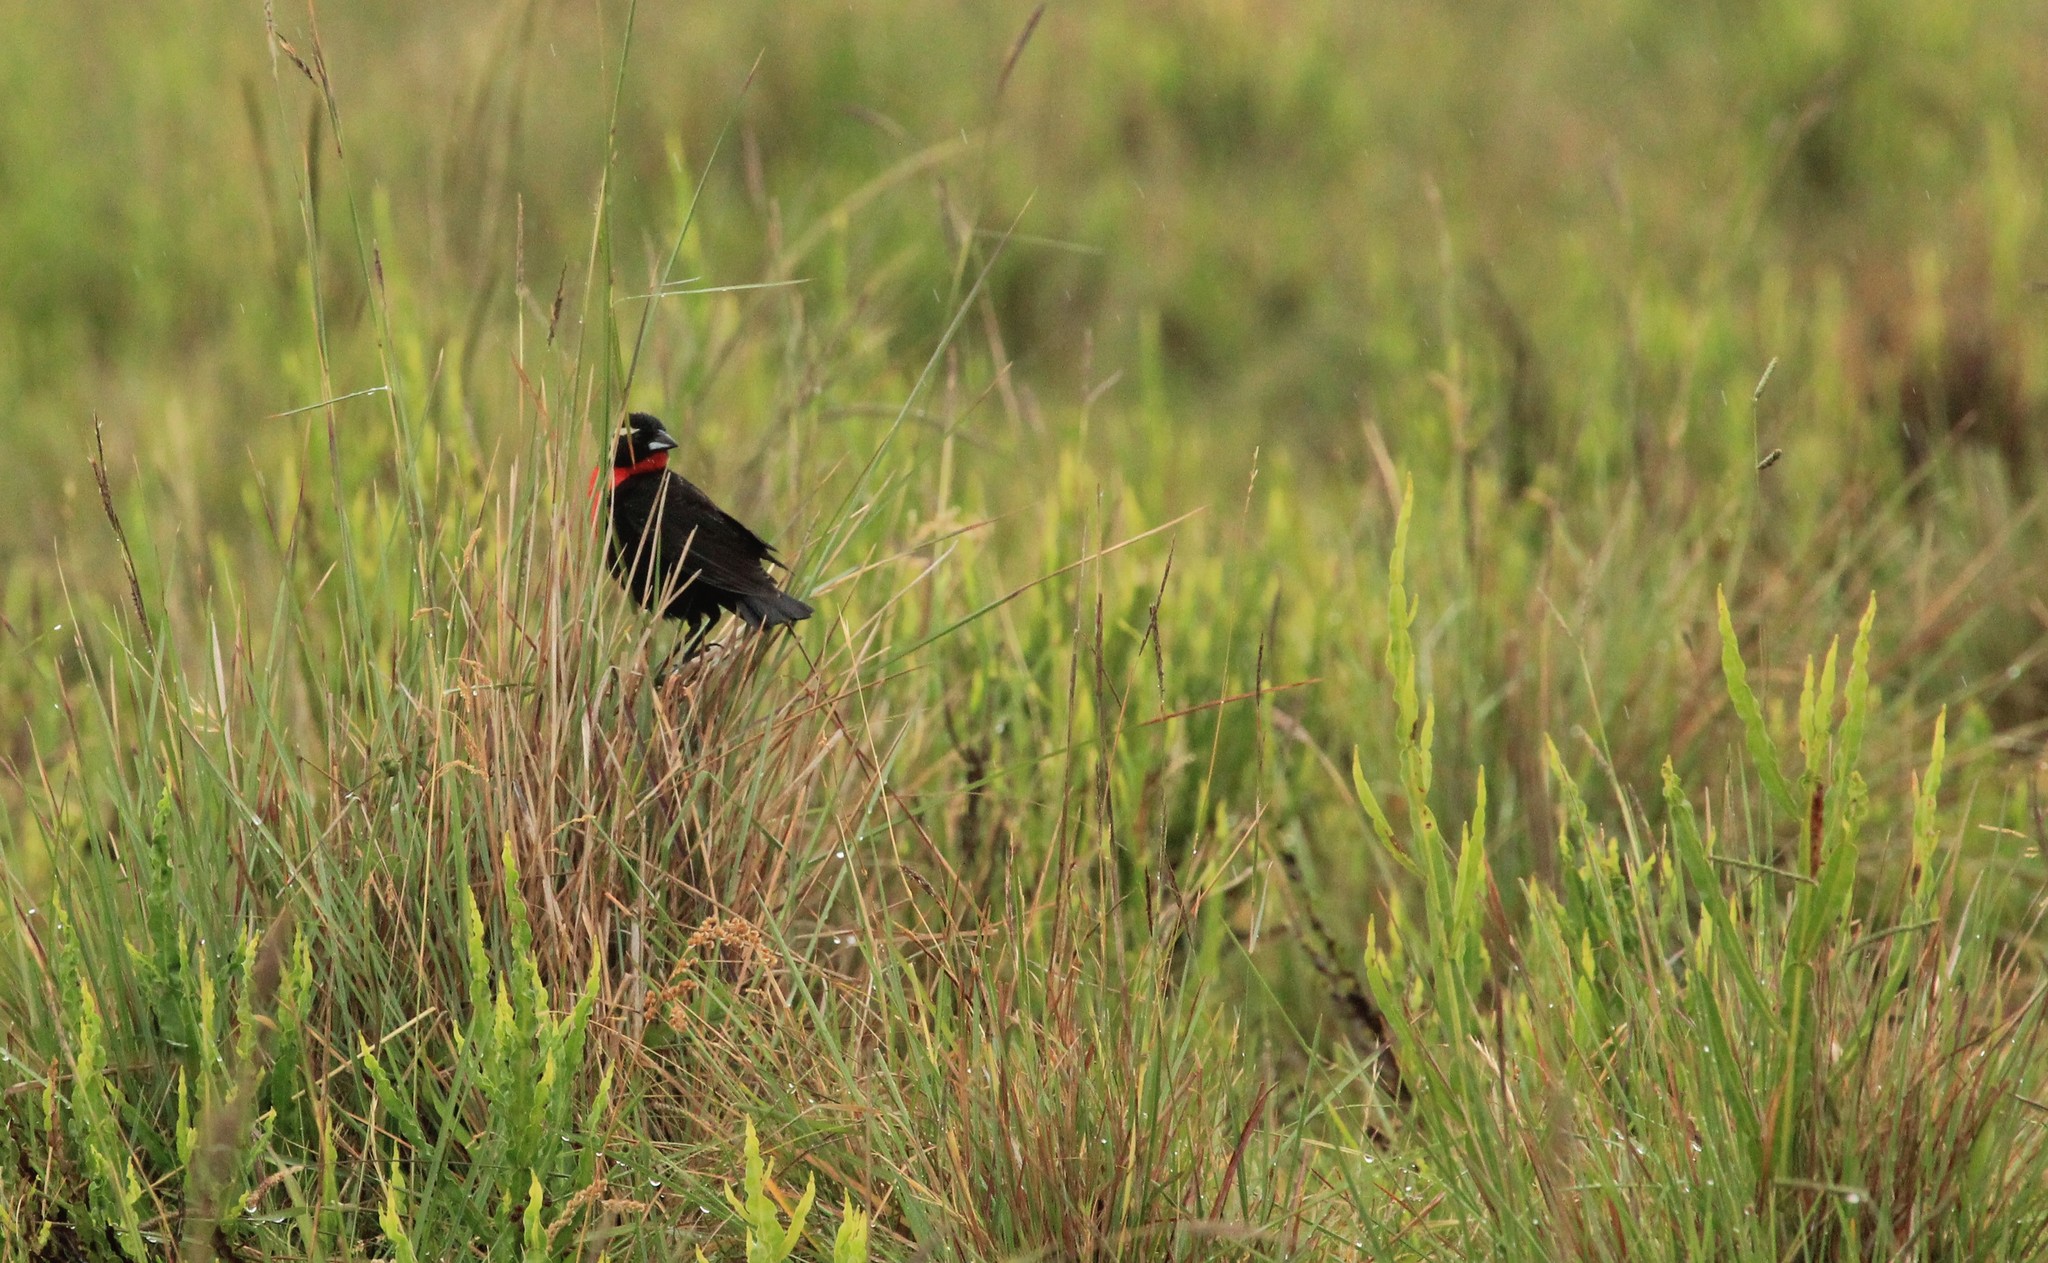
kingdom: Animalia
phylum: Chordata
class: Aves
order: Passeriformes
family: Icteridae
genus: Sturnella
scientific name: Sturnella superciliaris
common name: White-browed blackbird
